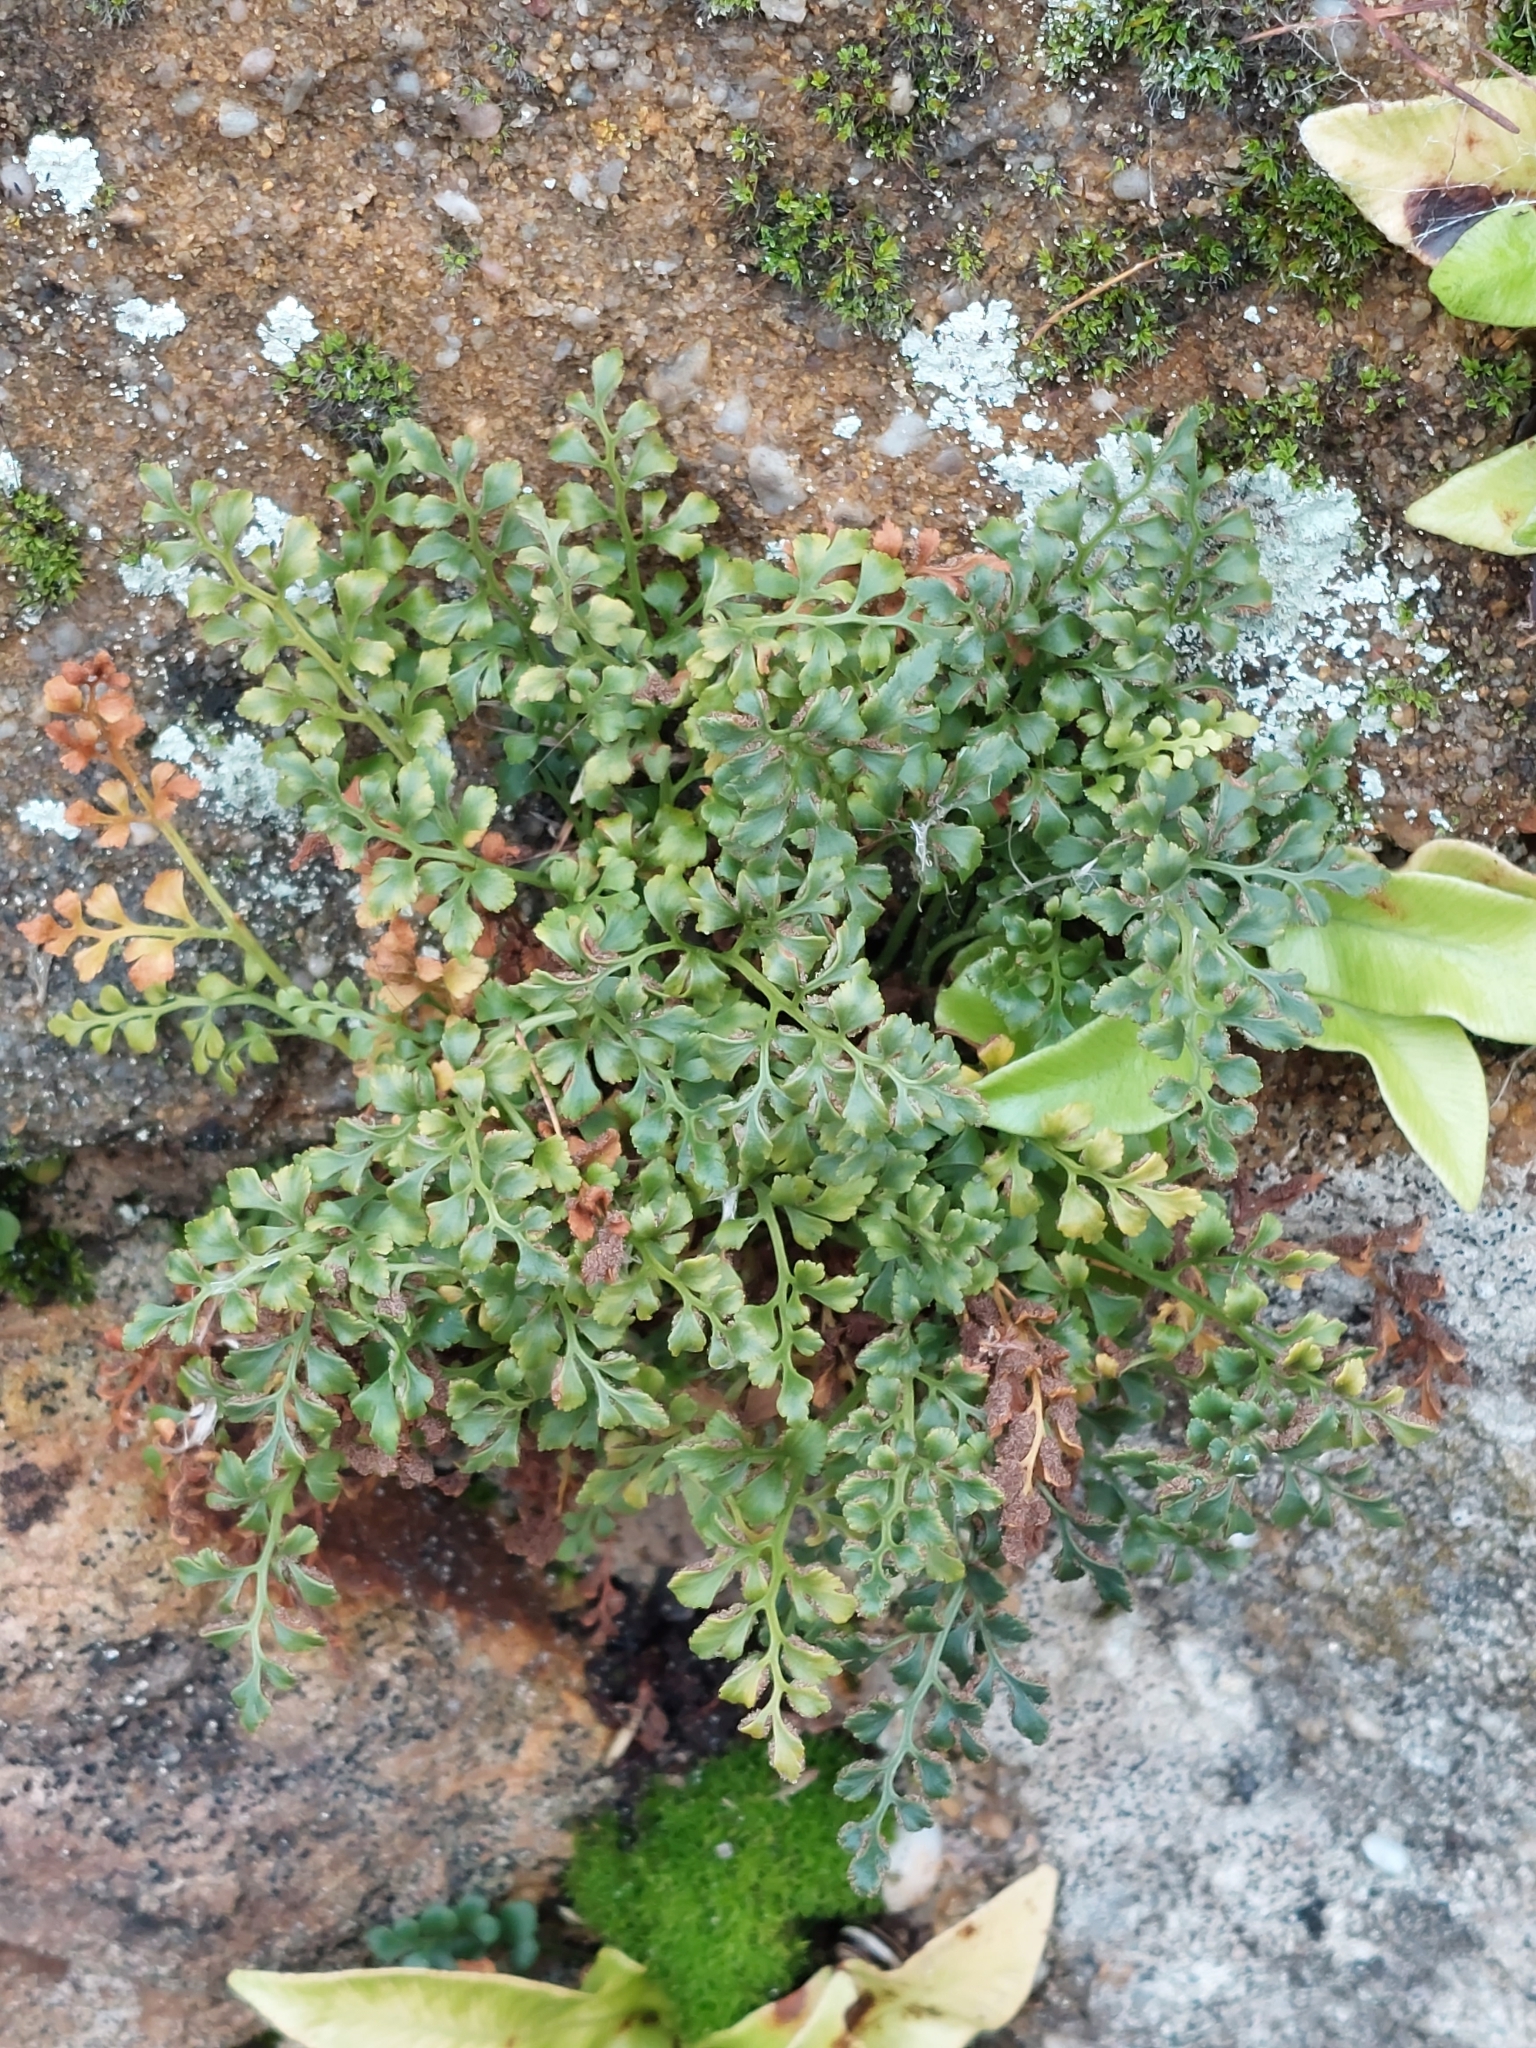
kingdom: Plantae
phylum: Tracheophyta
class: Polypodiopsida
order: Polypodiales
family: Aspleniaceae
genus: Asplenium
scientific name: Asplenium ruta-muraria
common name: Wall-rue
